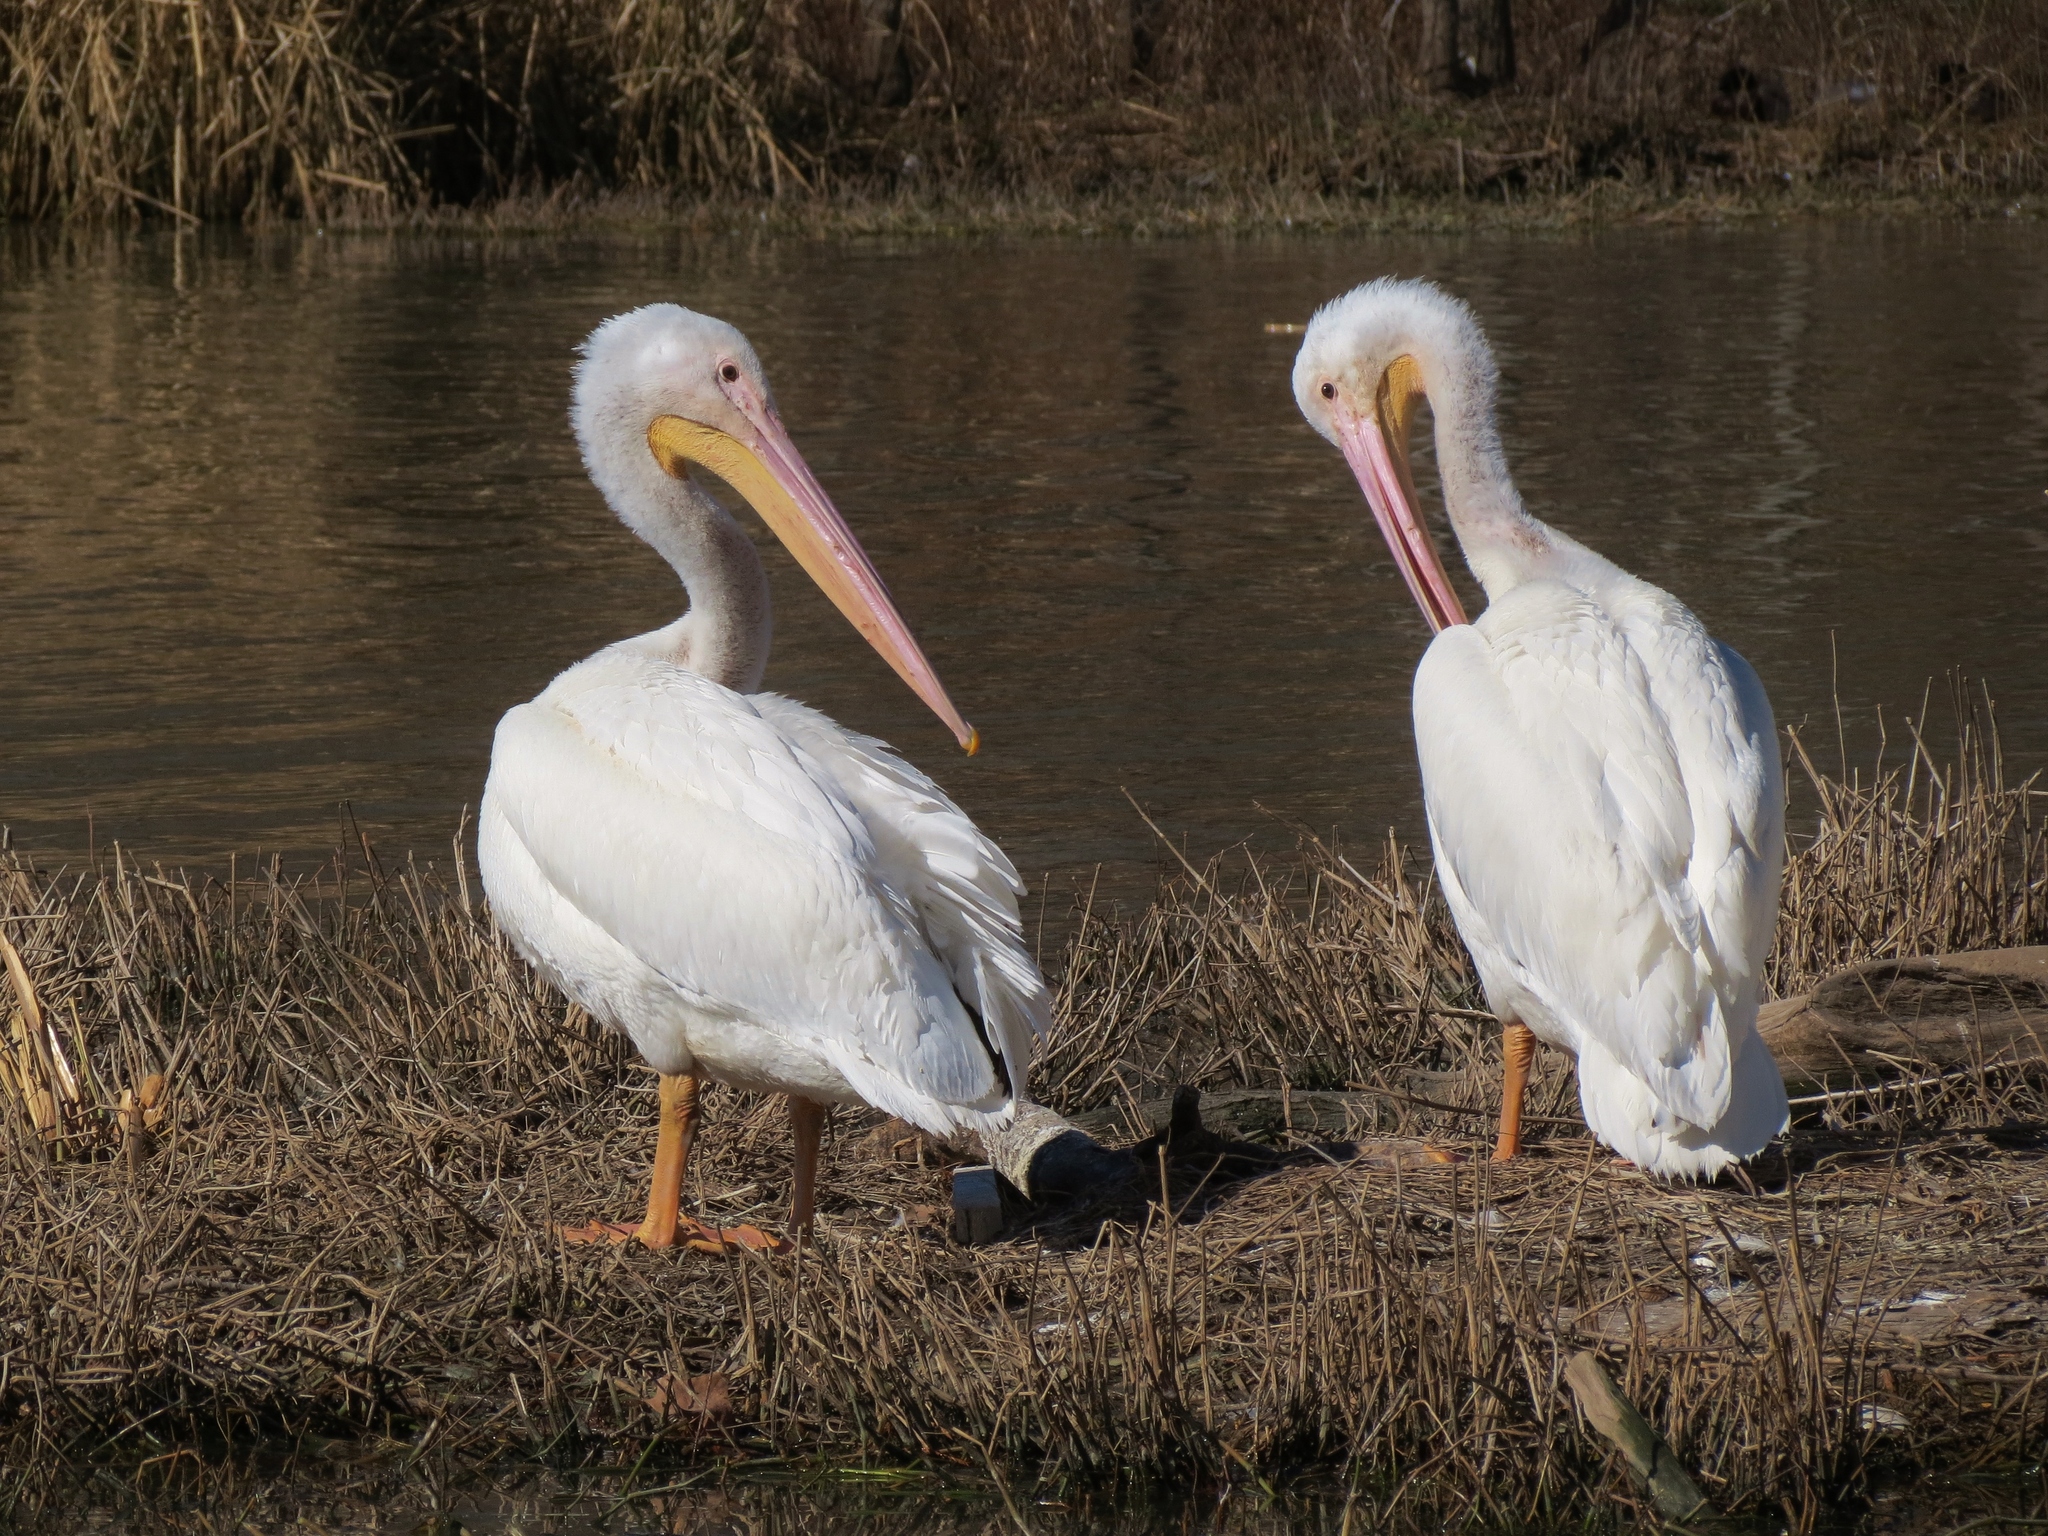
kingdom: Animalia
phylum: Chordata
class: Aves
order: Pelecaniformes
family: Pelecanidae
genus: Pelecanus
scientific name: Pelecanus erythrorhynchos
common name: American white pelican
